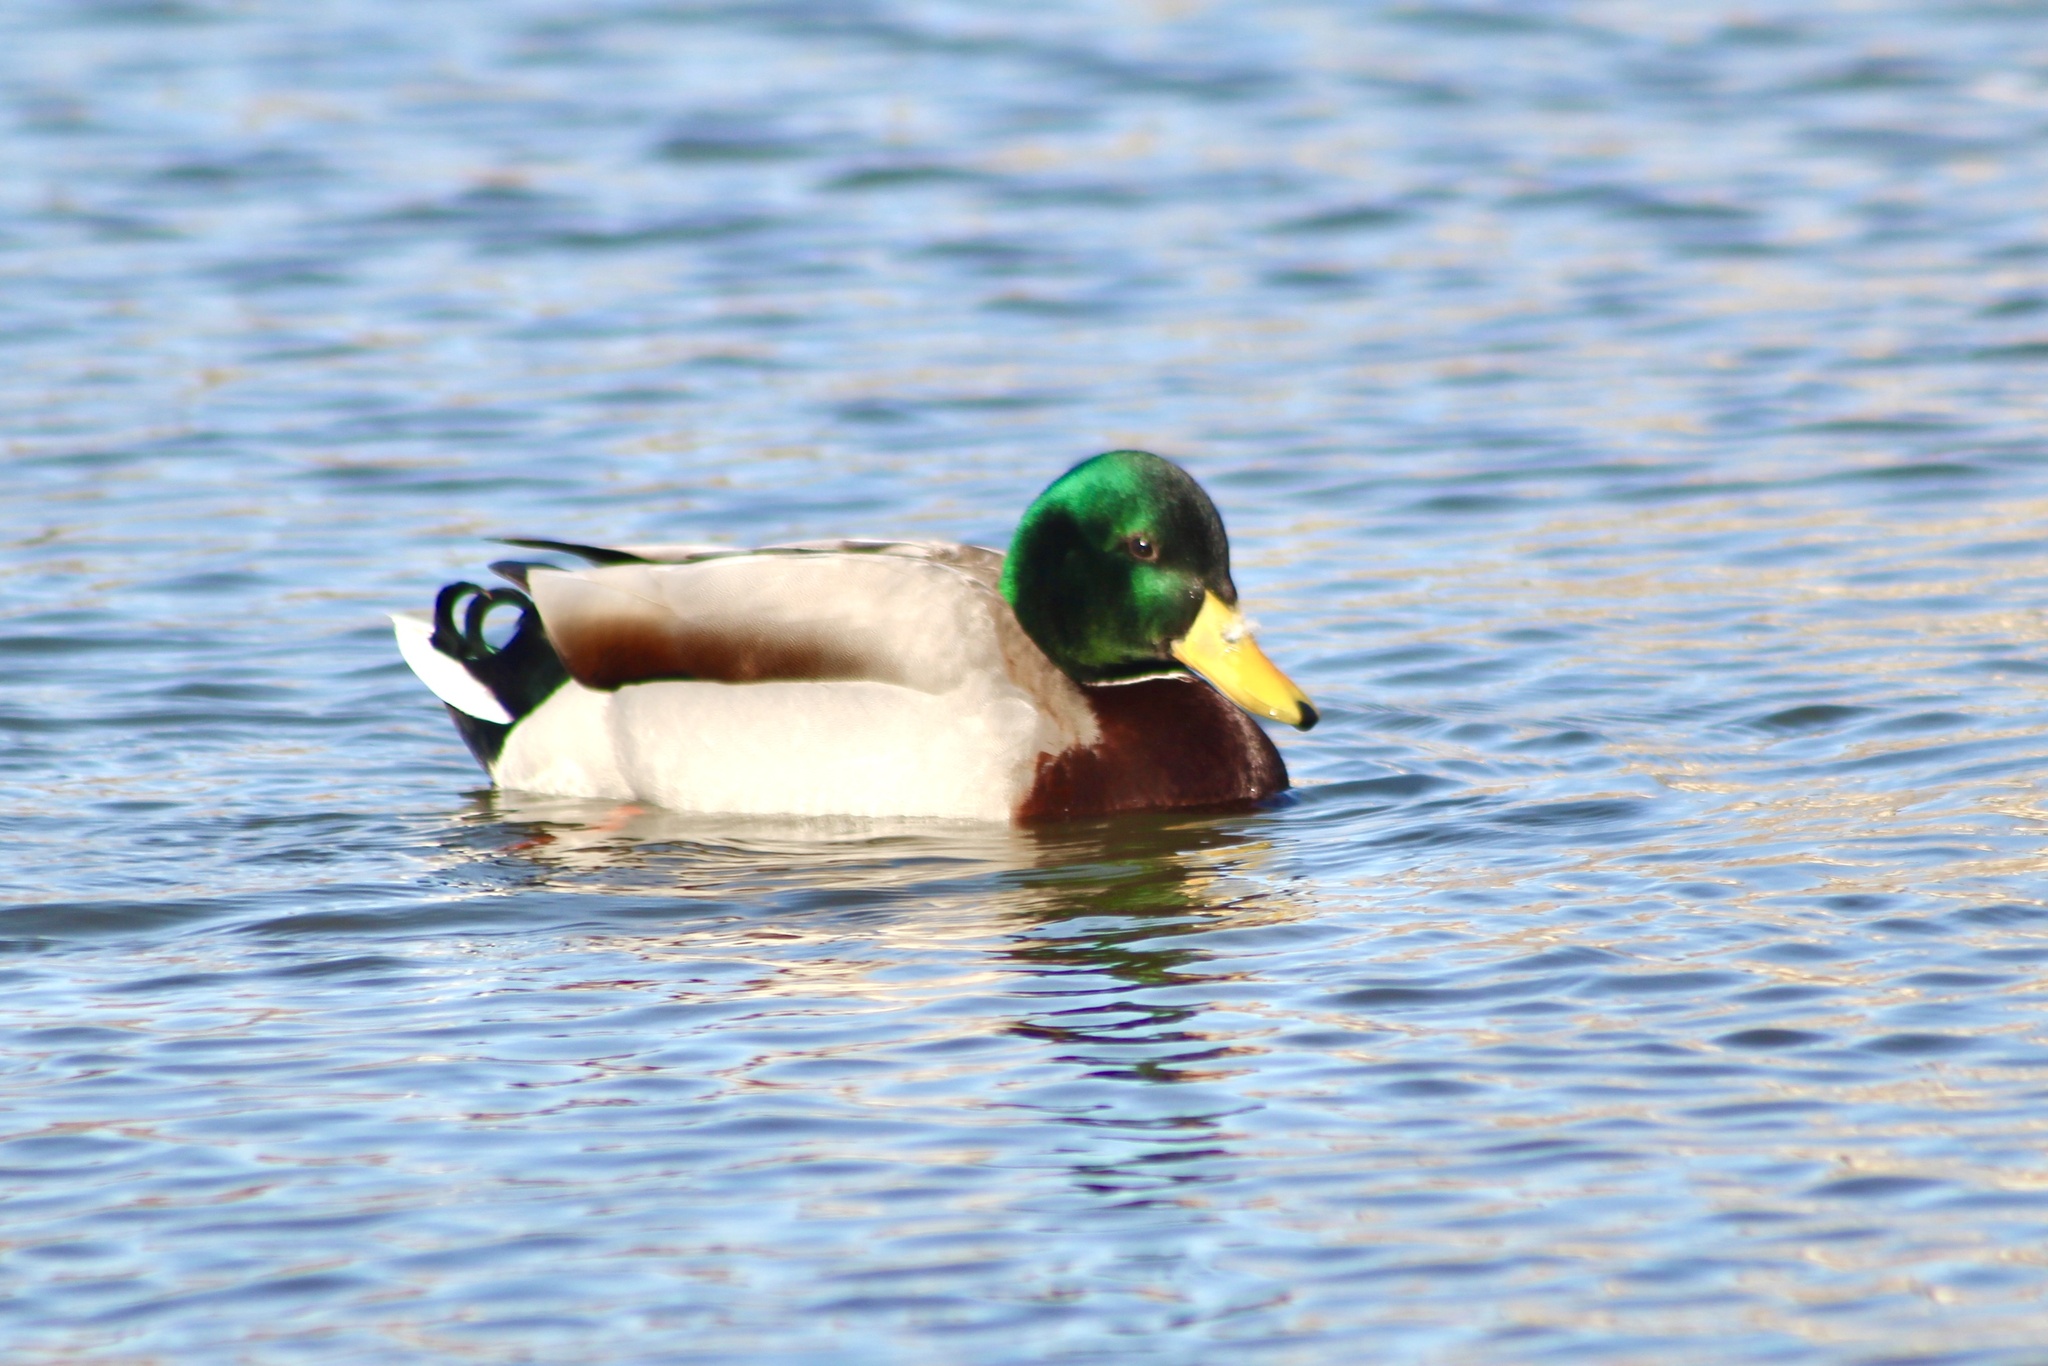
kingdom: Animalia
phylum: Chordata
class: Aves
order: Anseriformes
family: Anatidae
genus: Anas
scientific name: Anas platyrhynchos
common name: Mallard
